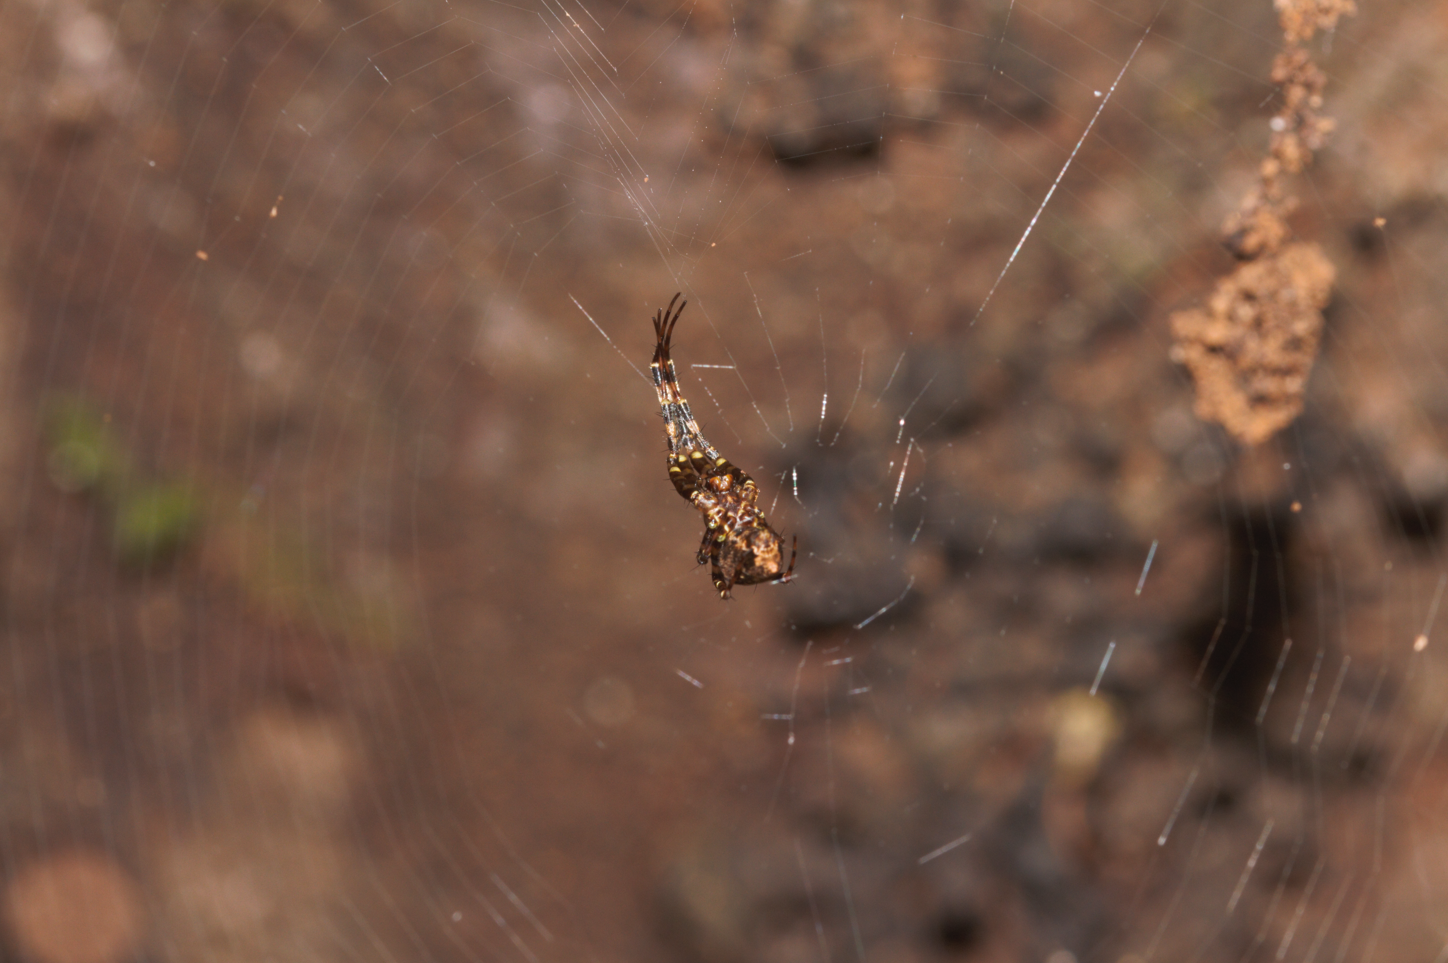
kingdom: Animalia
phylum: Arthropoda
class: Arachnida
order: Araneae
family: Tetragnathidae
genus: Azilia
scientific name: Azilia
